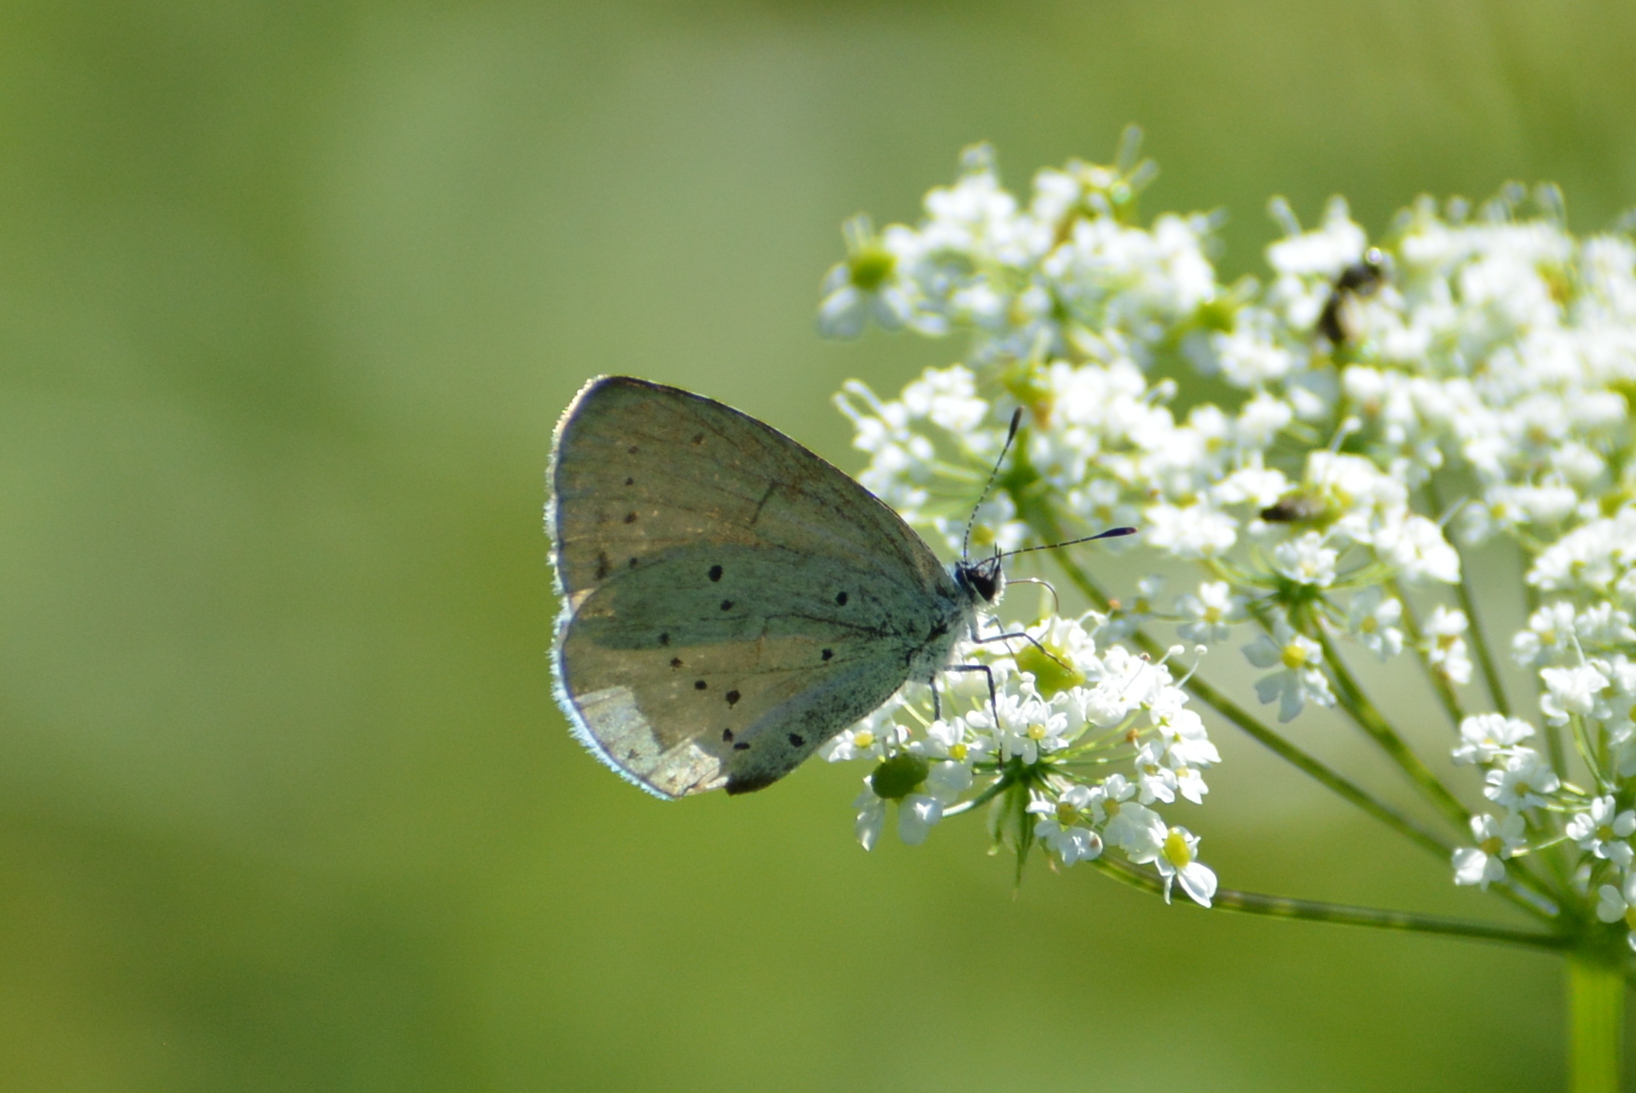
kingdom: Animalia
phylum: Arthropoda
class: Insecta
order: Lepidoptera
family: Lycaenidae
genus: Celastrina
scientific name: Celastrina argiolus
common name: Holly blue
